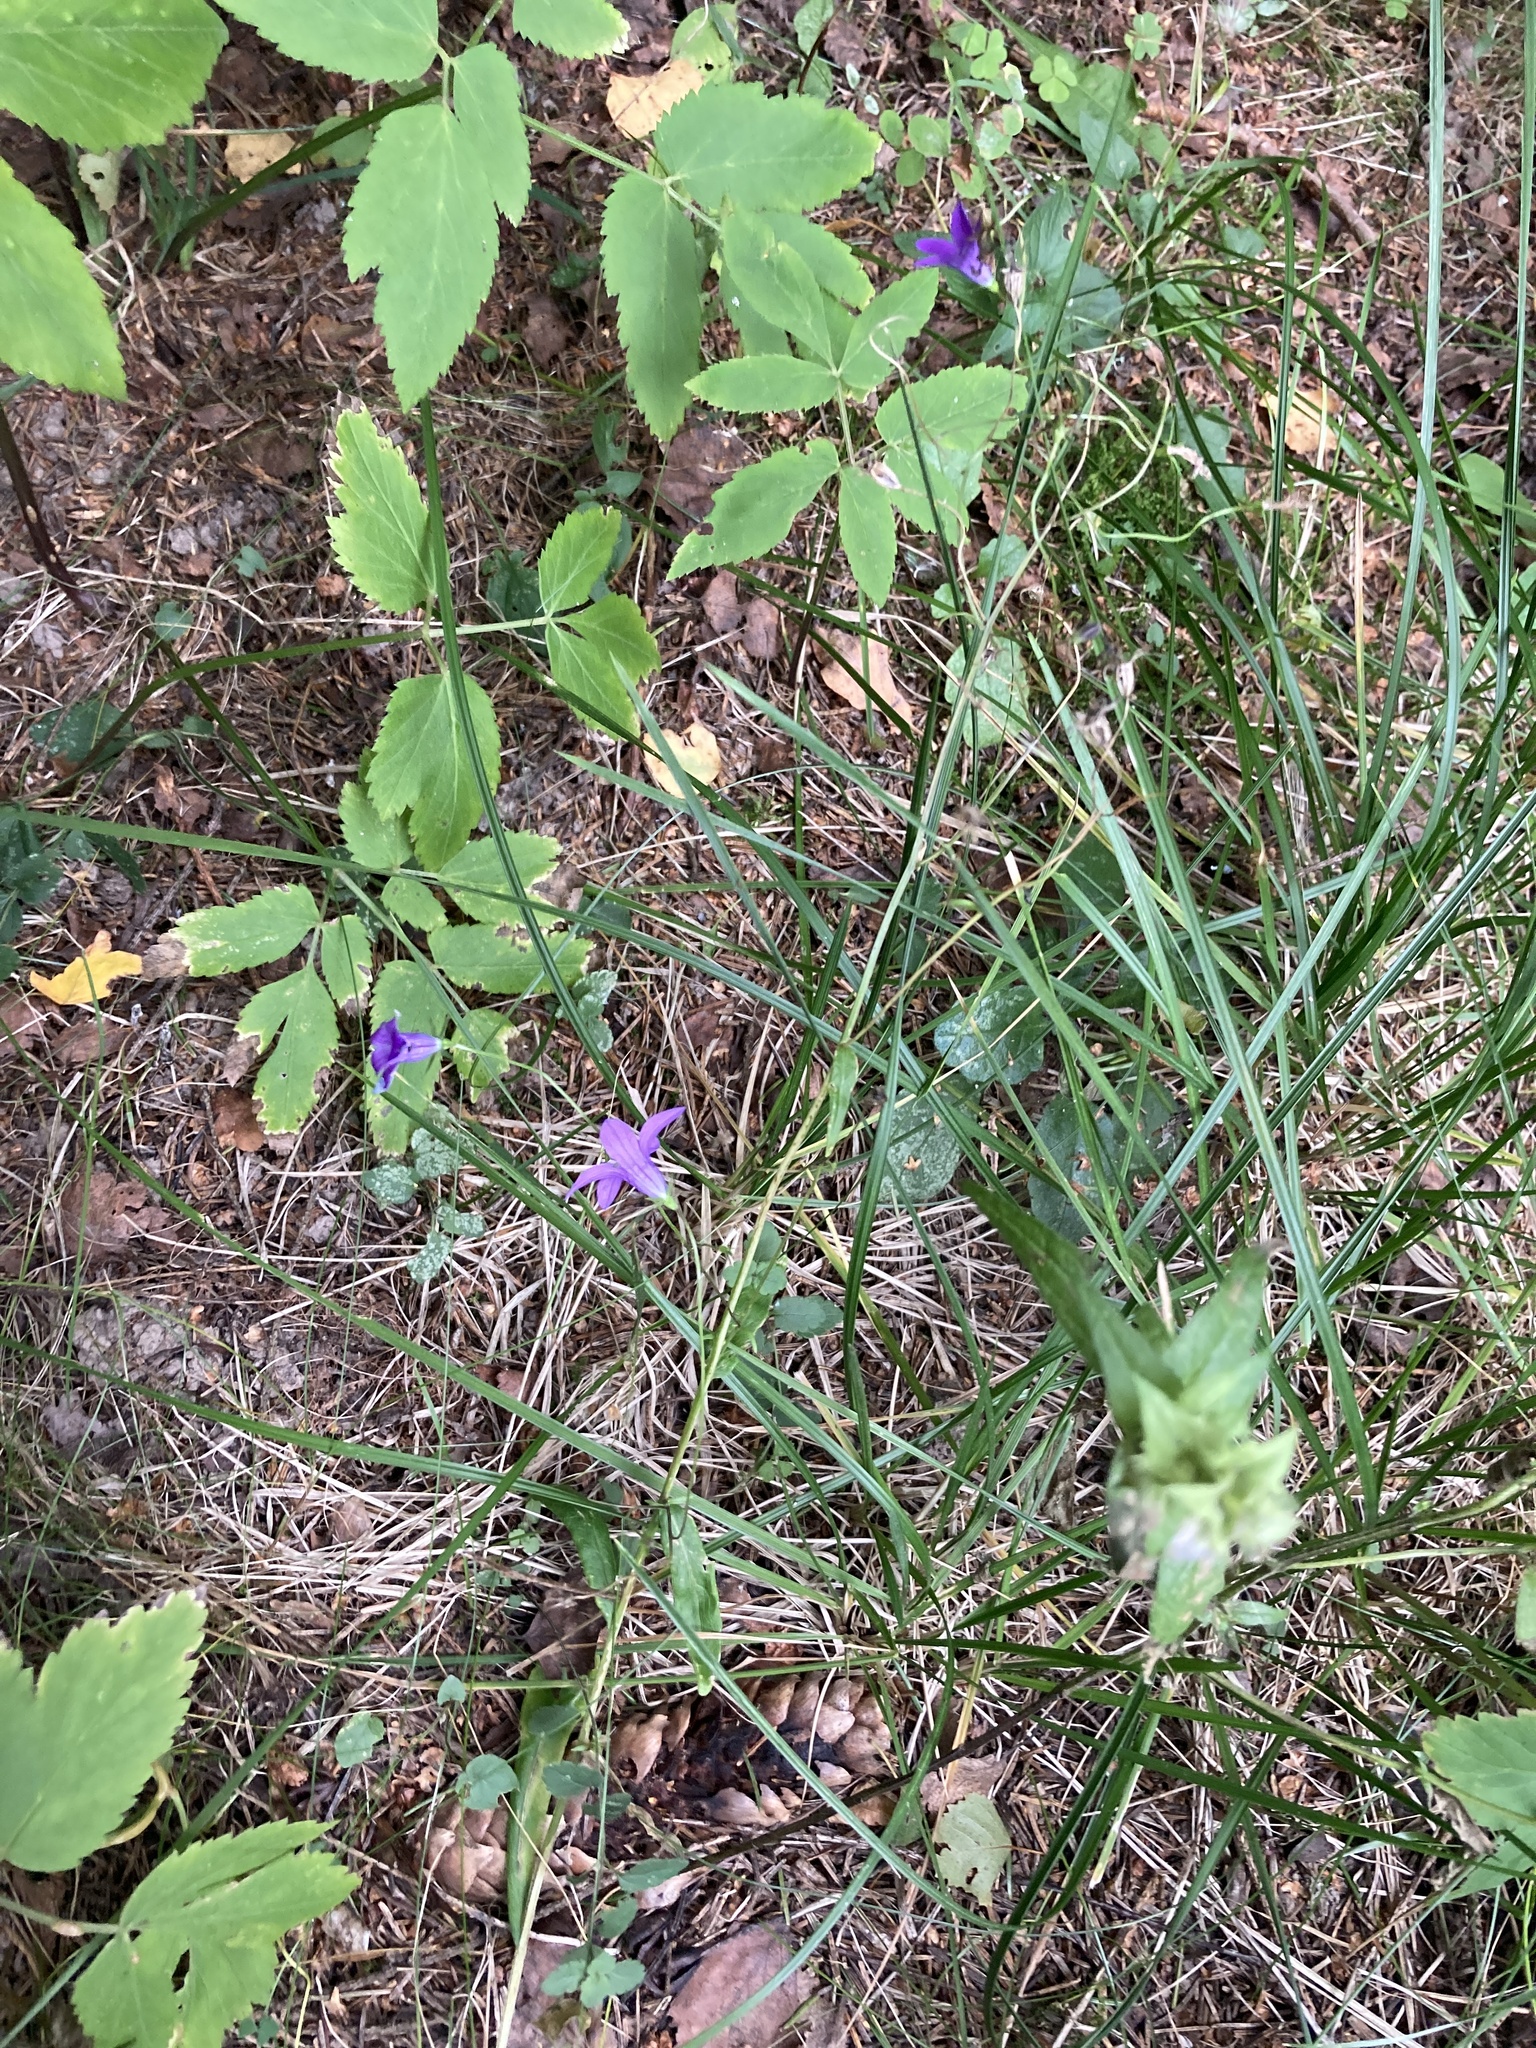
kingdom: Plantae
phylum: Tracheophyta
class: Magnoliopsida
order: Asterales
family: Campanulaceae
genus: Campanula
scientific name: Campanula patula
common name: Spreading bellflower
